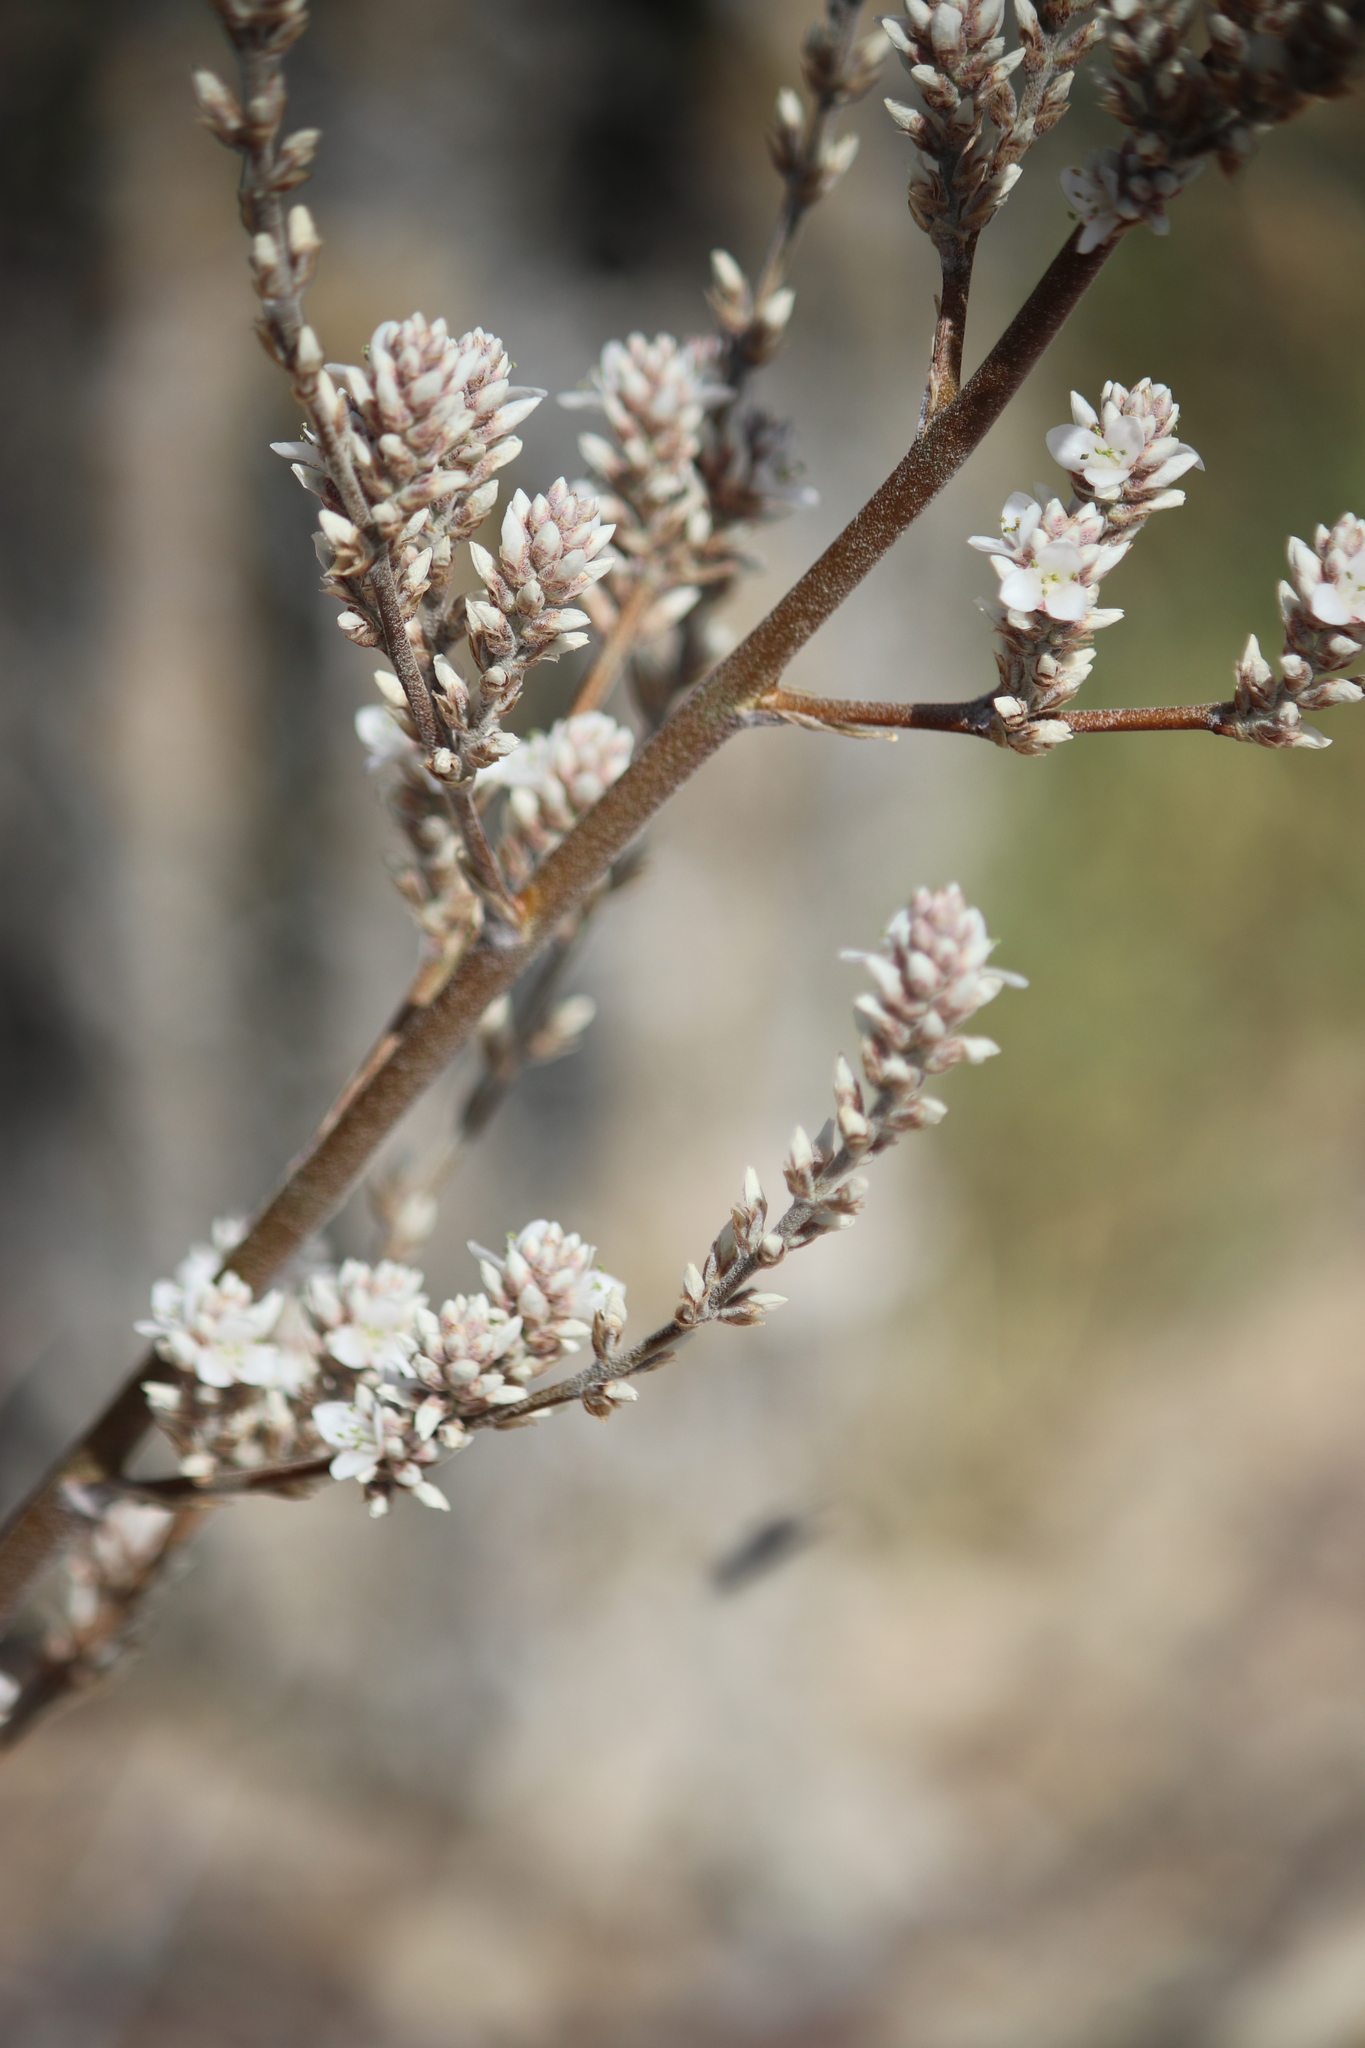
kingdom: Plantae
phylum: Tracheophyta
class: Liliopsida
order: Poales
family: Bromeliaceae
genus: Hechtia
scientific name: Hechtia texensis
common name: False agave
